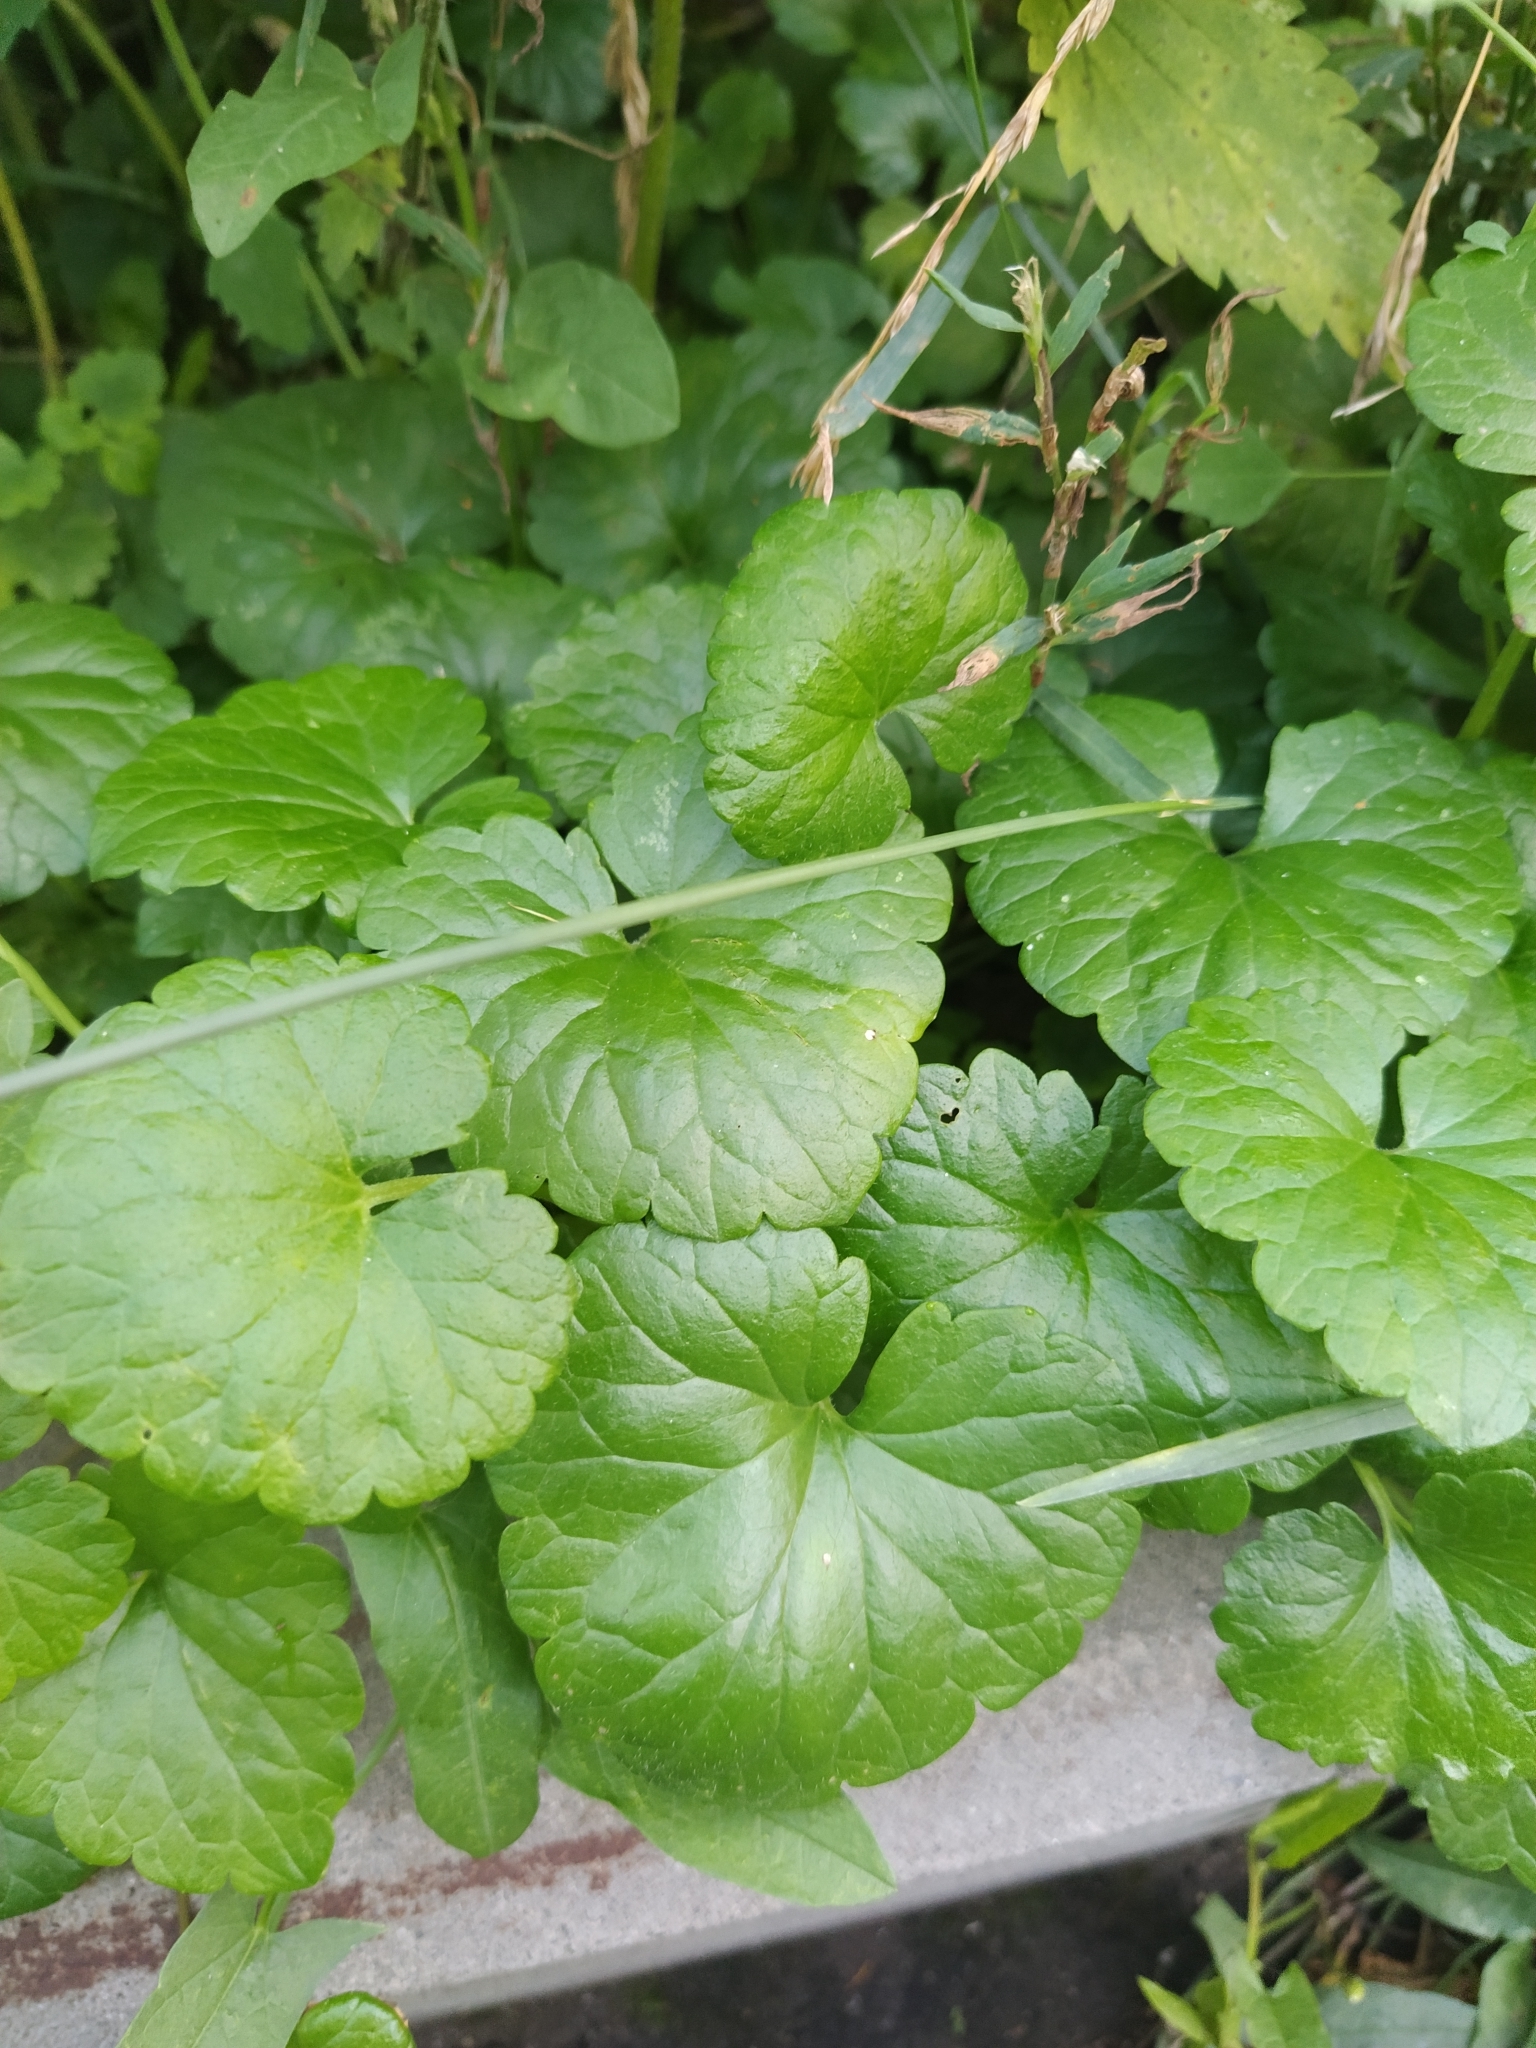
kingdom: Plantae
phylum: Tracheophyta
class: Magnoliopsida
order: Lamiales
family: Lamiaceae
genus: Glechoma
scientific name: Glechoma hederacea
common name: Ground ivy
